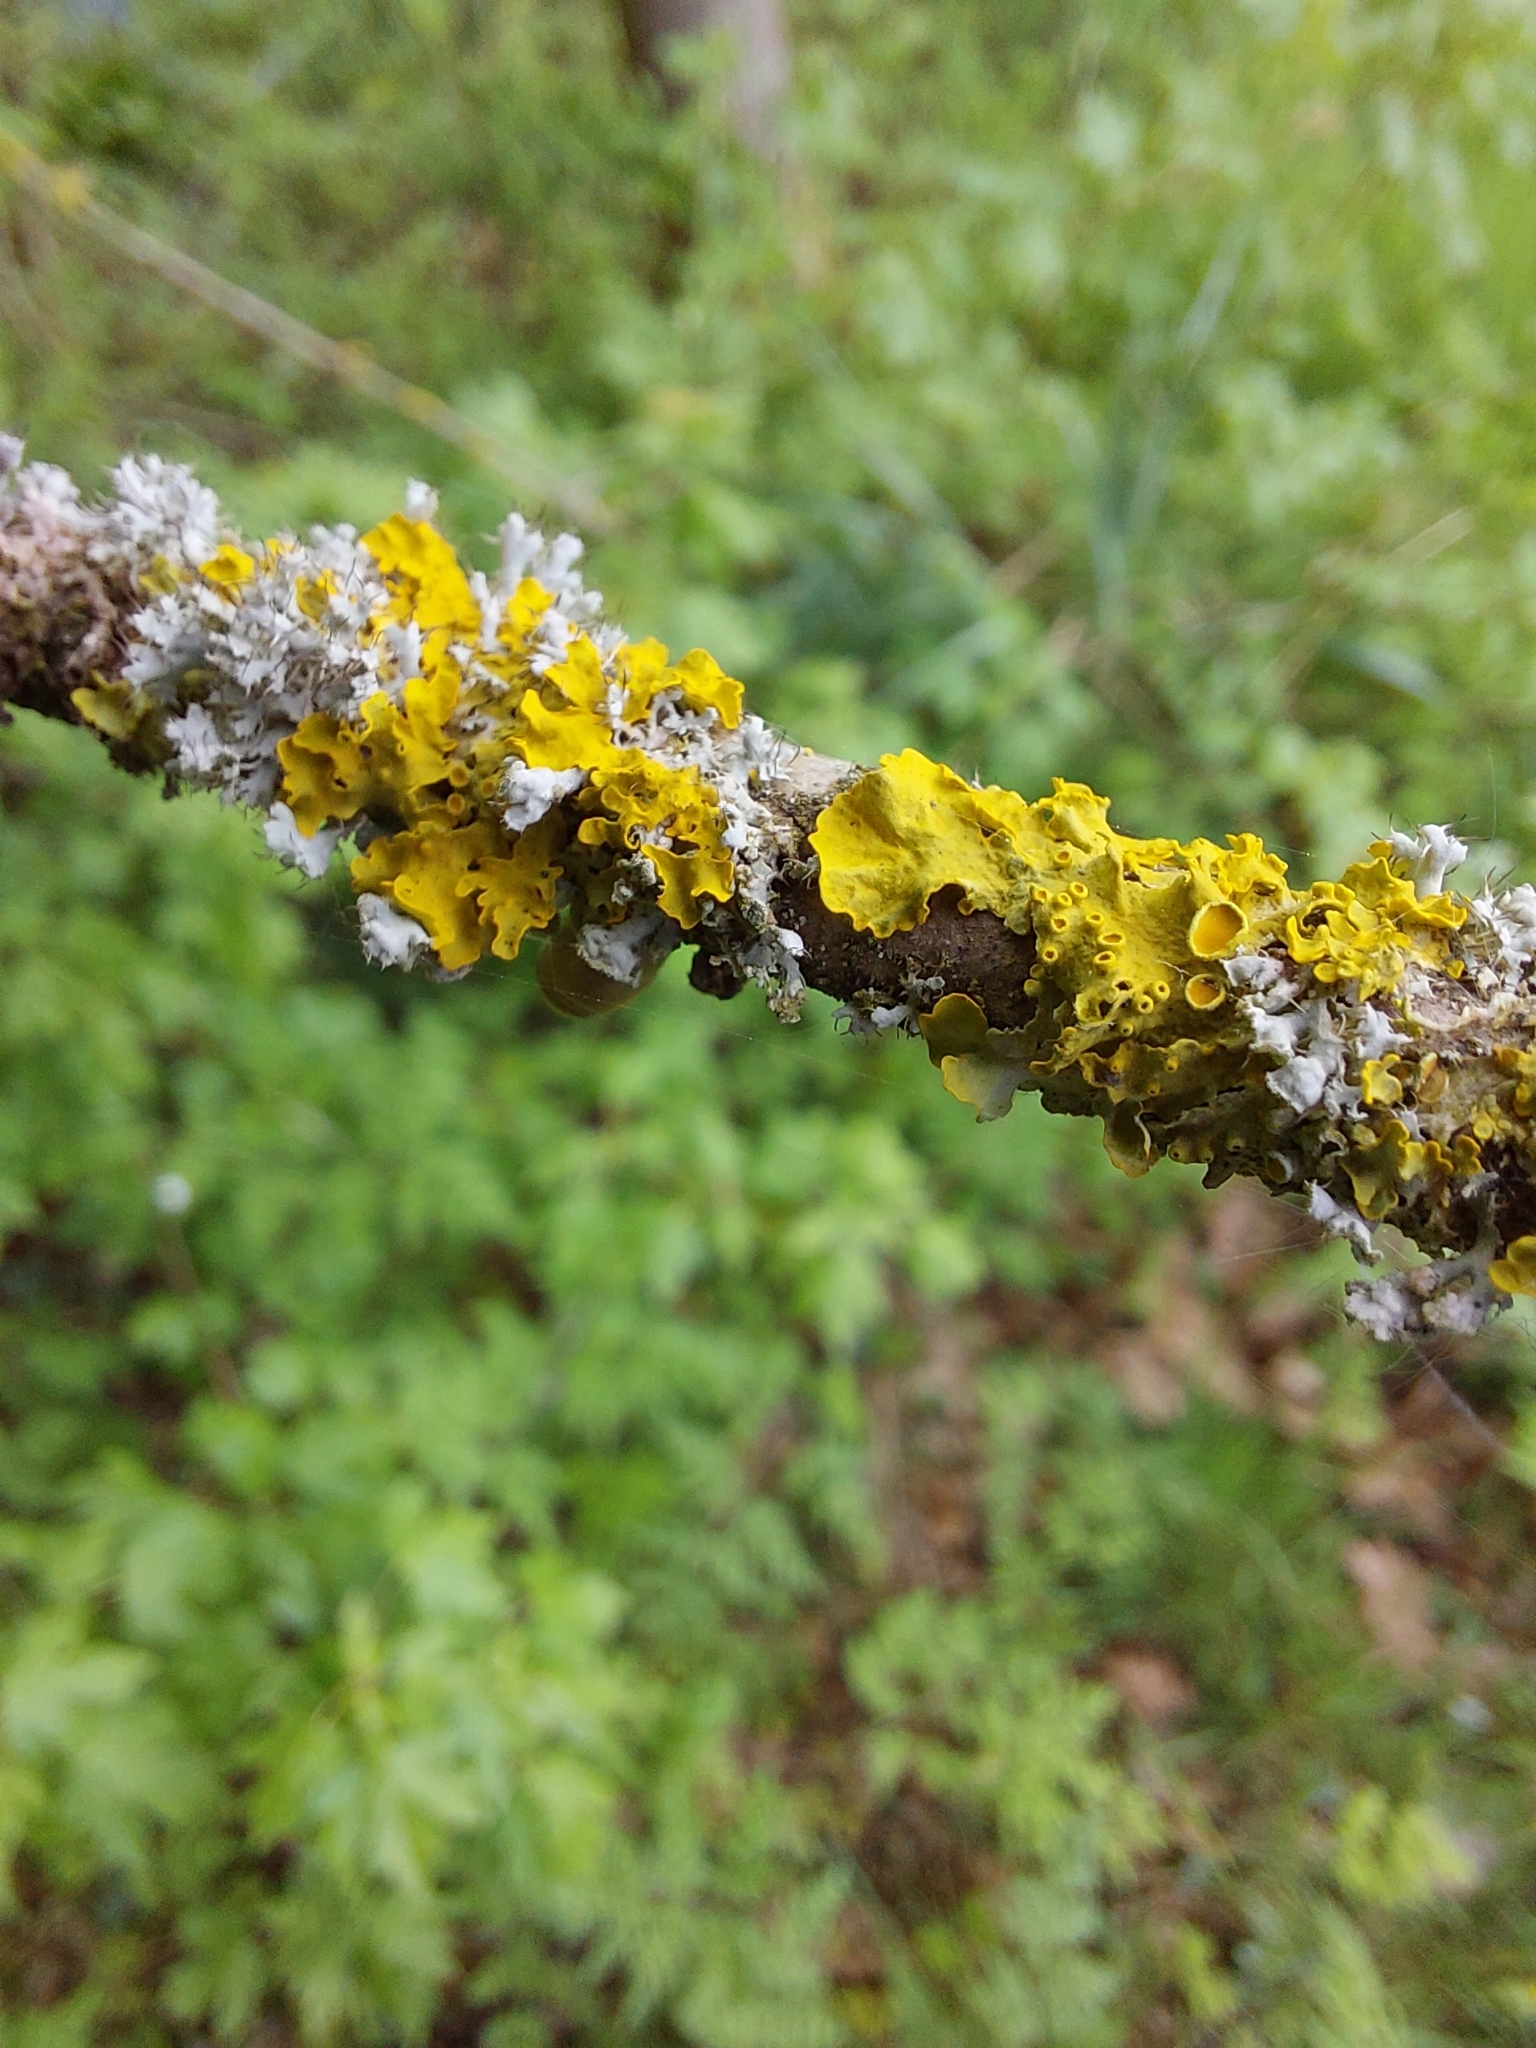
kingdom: Fungi
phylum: Ascomycota
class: Lecanoromycetes
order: Teloschistales
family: Teloschistaceae
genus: Xanthoria
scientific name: Xanthoria parietina
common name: Common orange lichen
